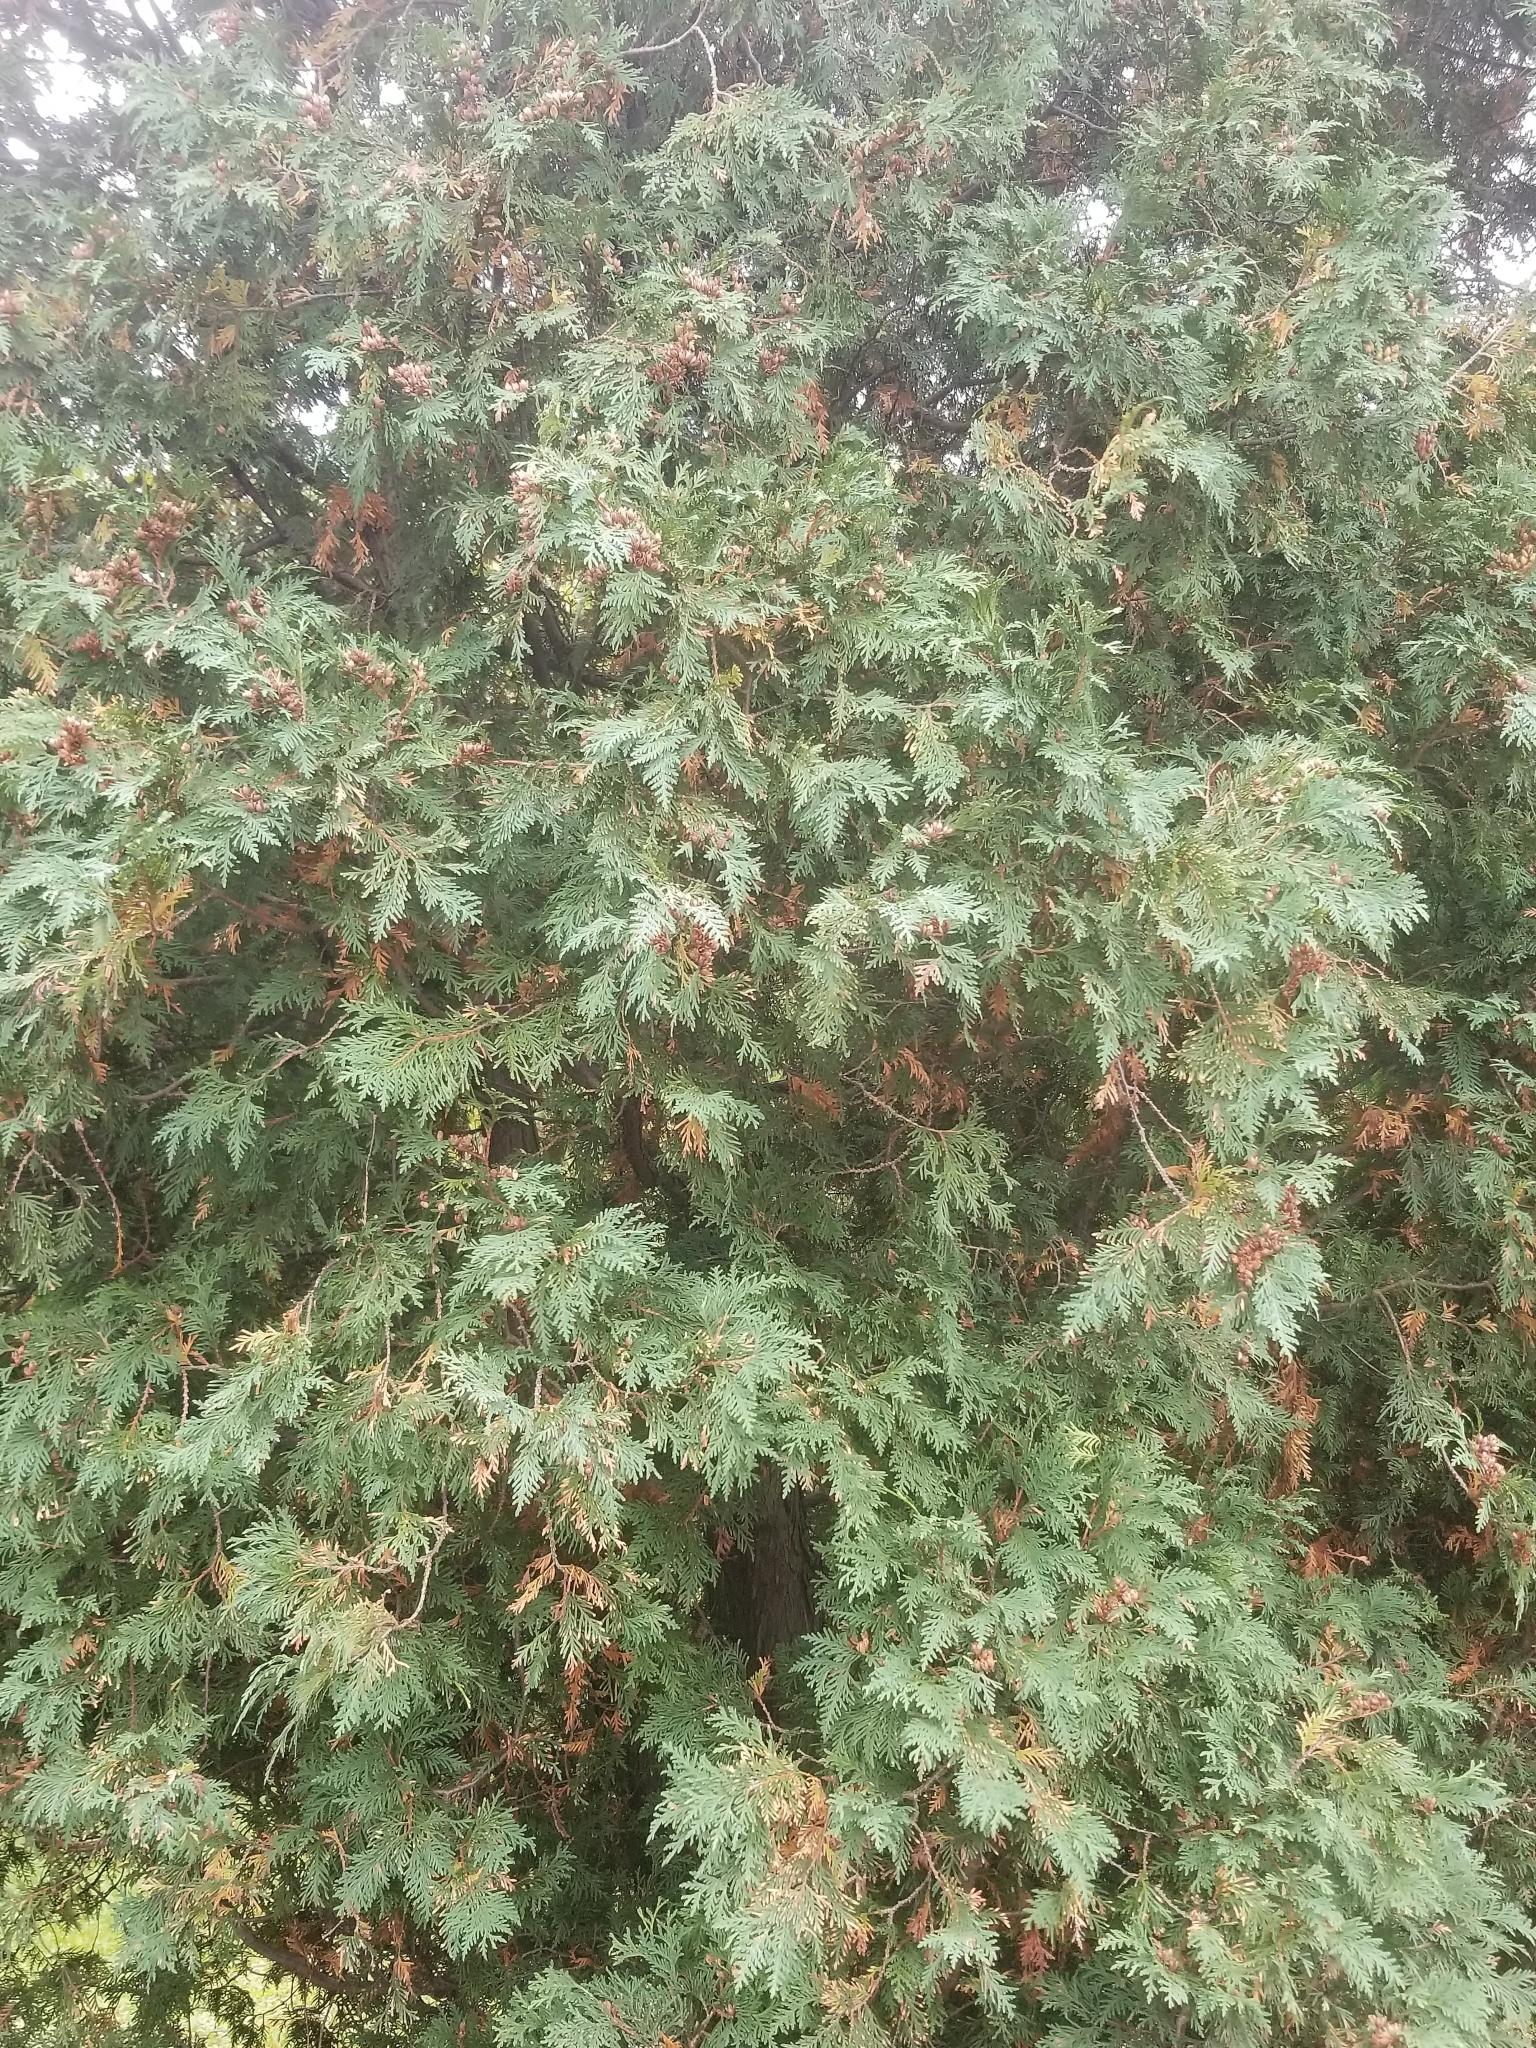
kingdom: Plantae
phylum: Tracheophyta
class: Pinopsida
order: Pinales
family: Cupressaceae
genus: Thuja
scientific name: Thuja occidentalis
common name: Northern white-cedar
